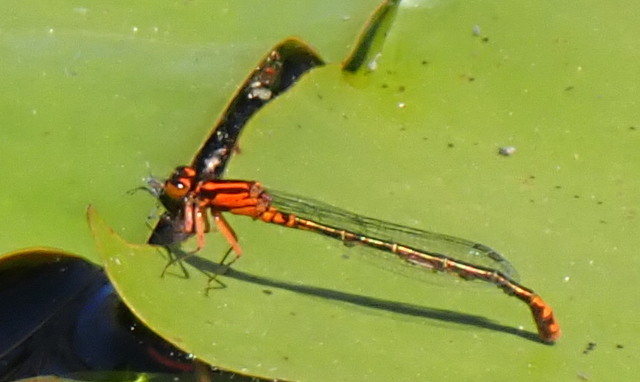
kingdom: Animalia
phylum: Arthropoda
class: Insecta
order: Odonata
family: Coenagrionidae
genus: Ischnura
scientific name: Ischnura kellicotti
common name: Lilypad forktail
